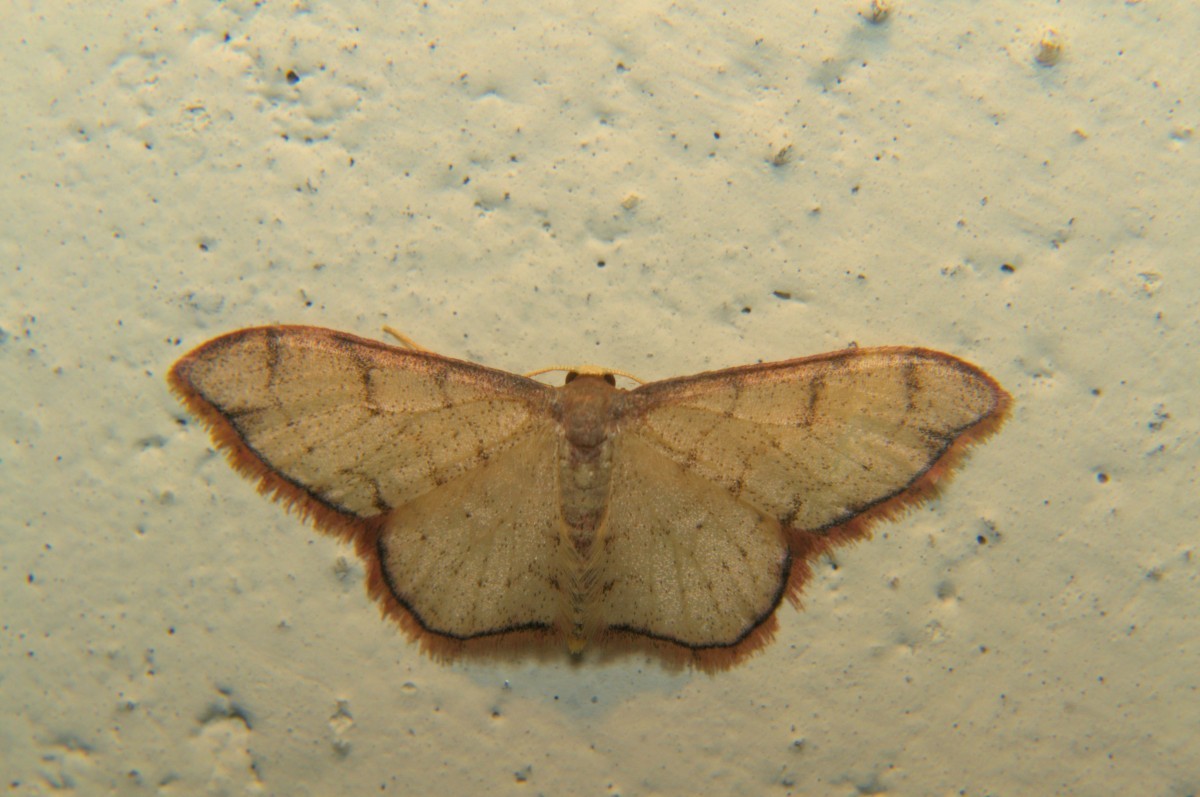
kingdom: Animalia
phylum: Arthropoda
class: Insecta
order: Lepidoptera
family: Geometridae
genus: Idaea
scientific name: Idaea protensa
